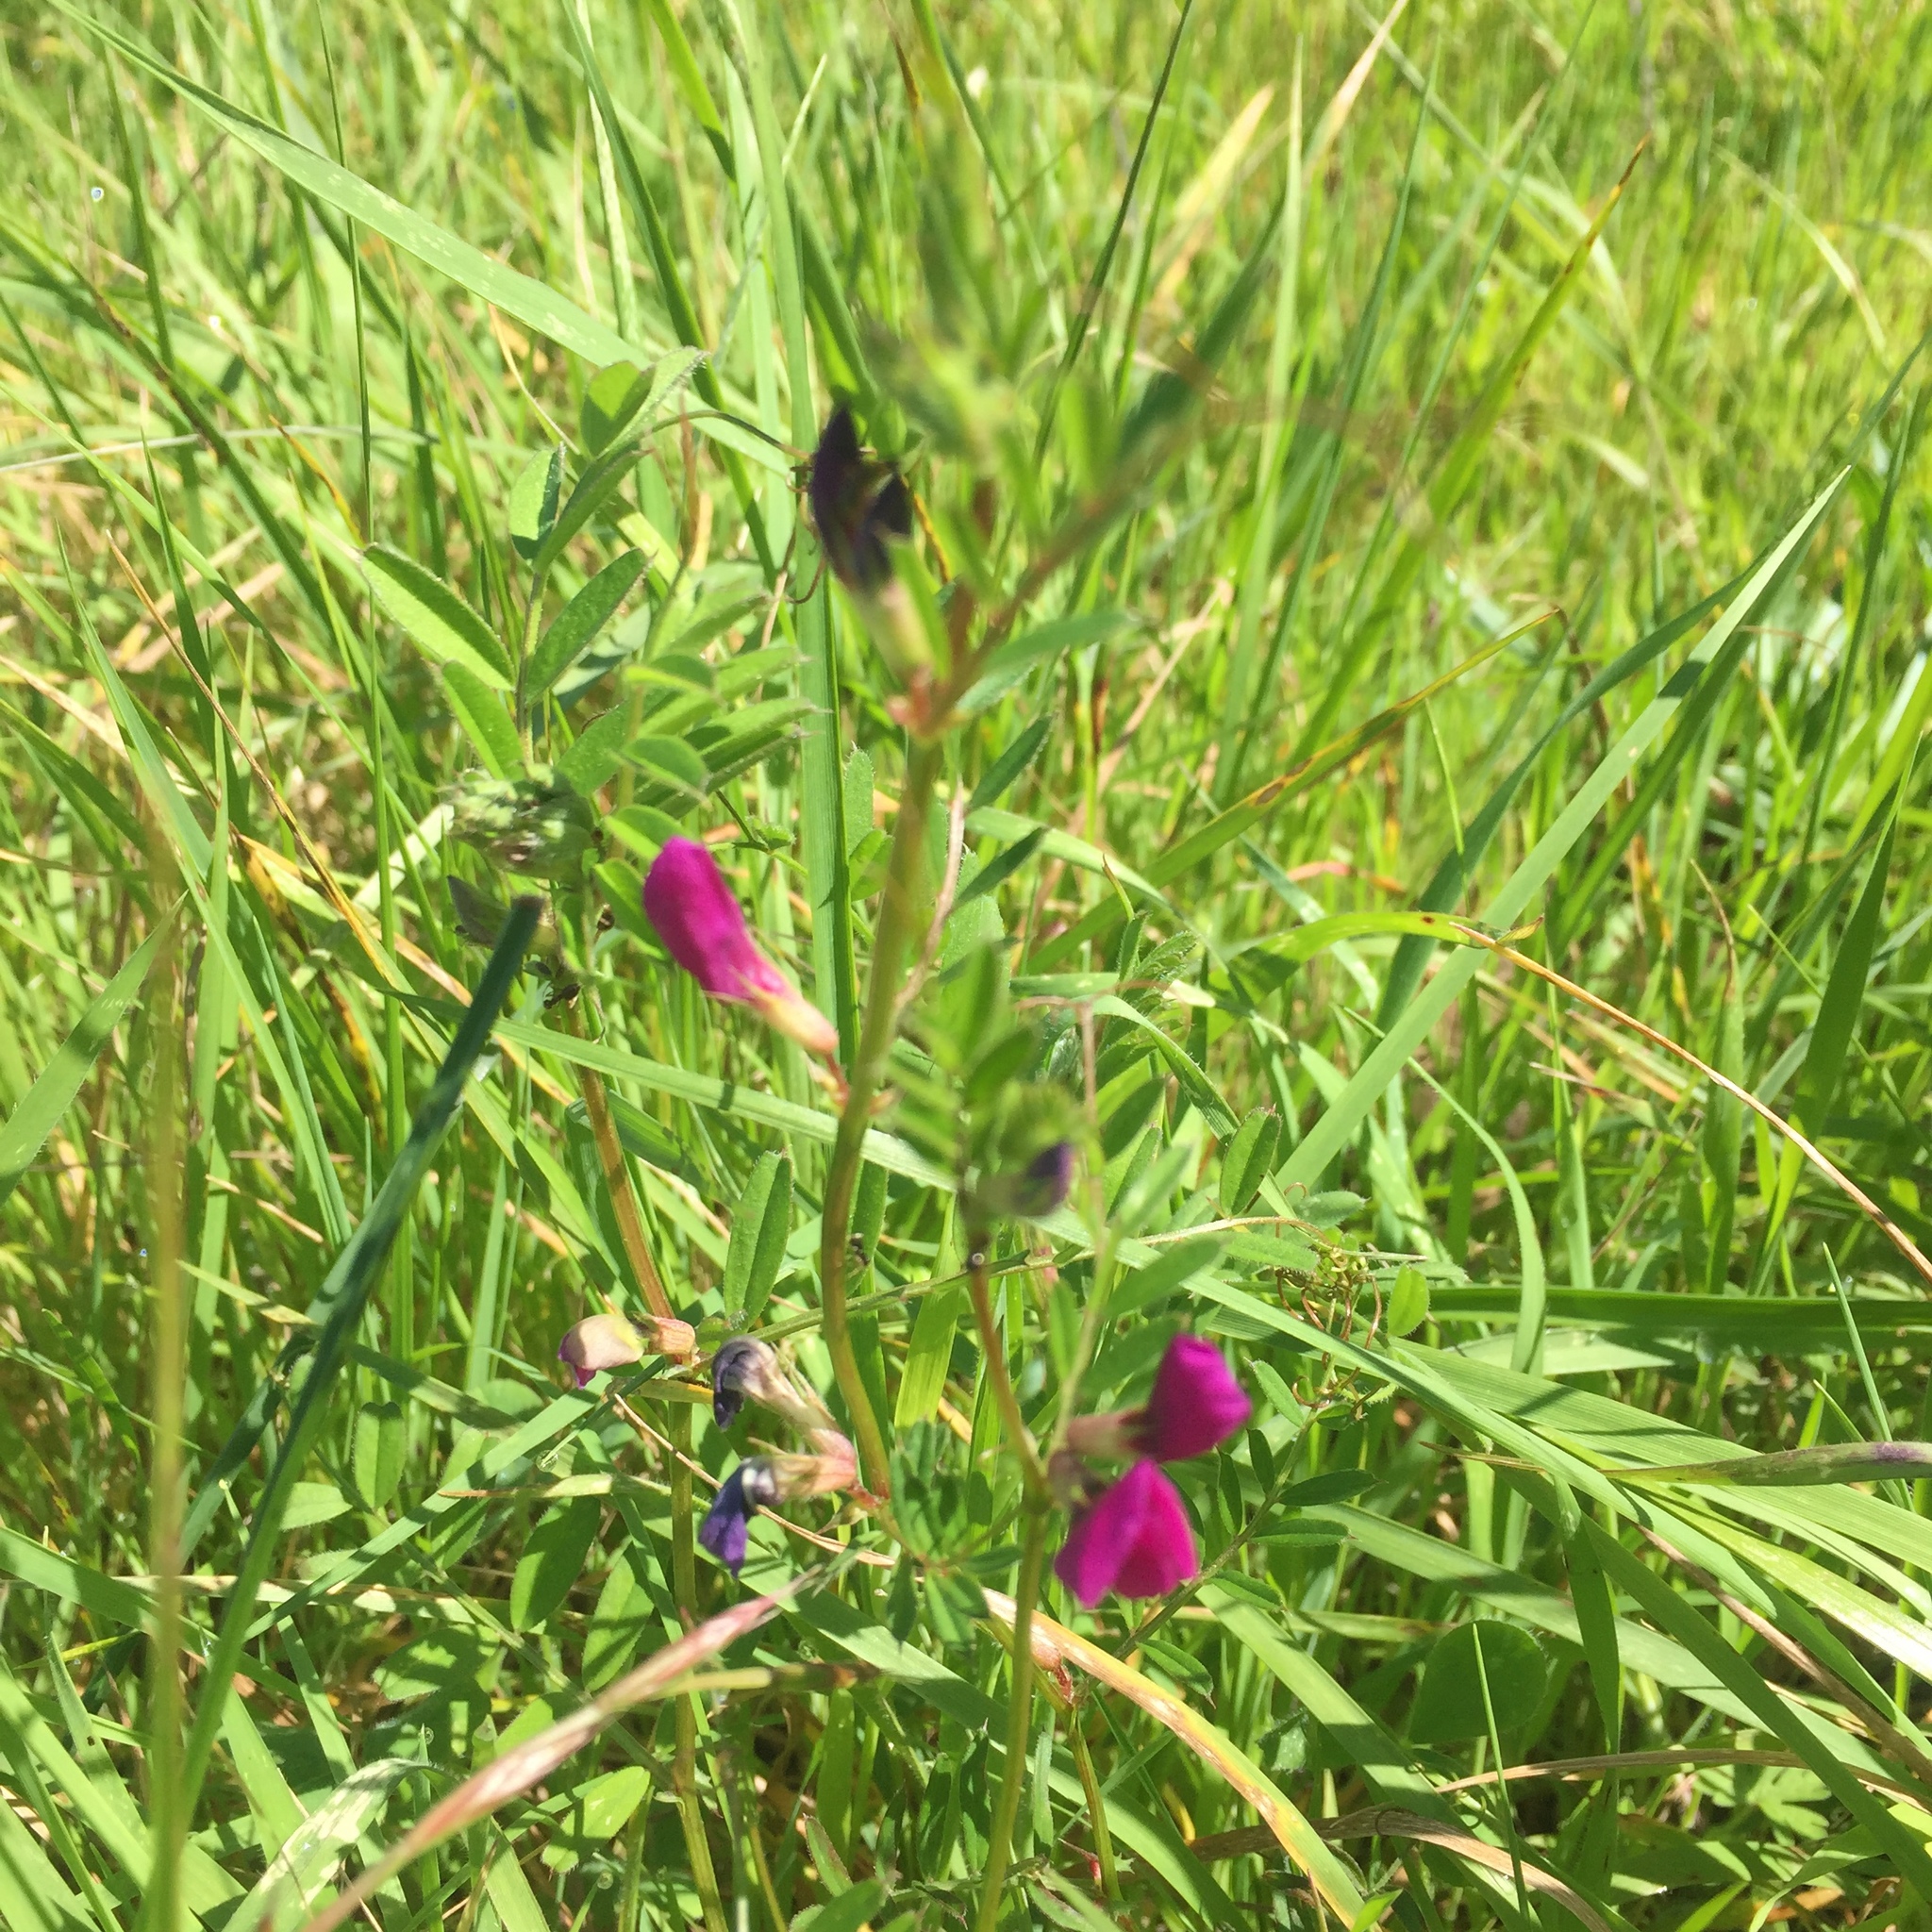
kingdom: Plantae
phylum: Tracheophyta
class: Magnoliopsida
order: Fabales
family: Fabaceae
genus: Vicia
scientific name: Vicia sativa
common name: Garden vetch
